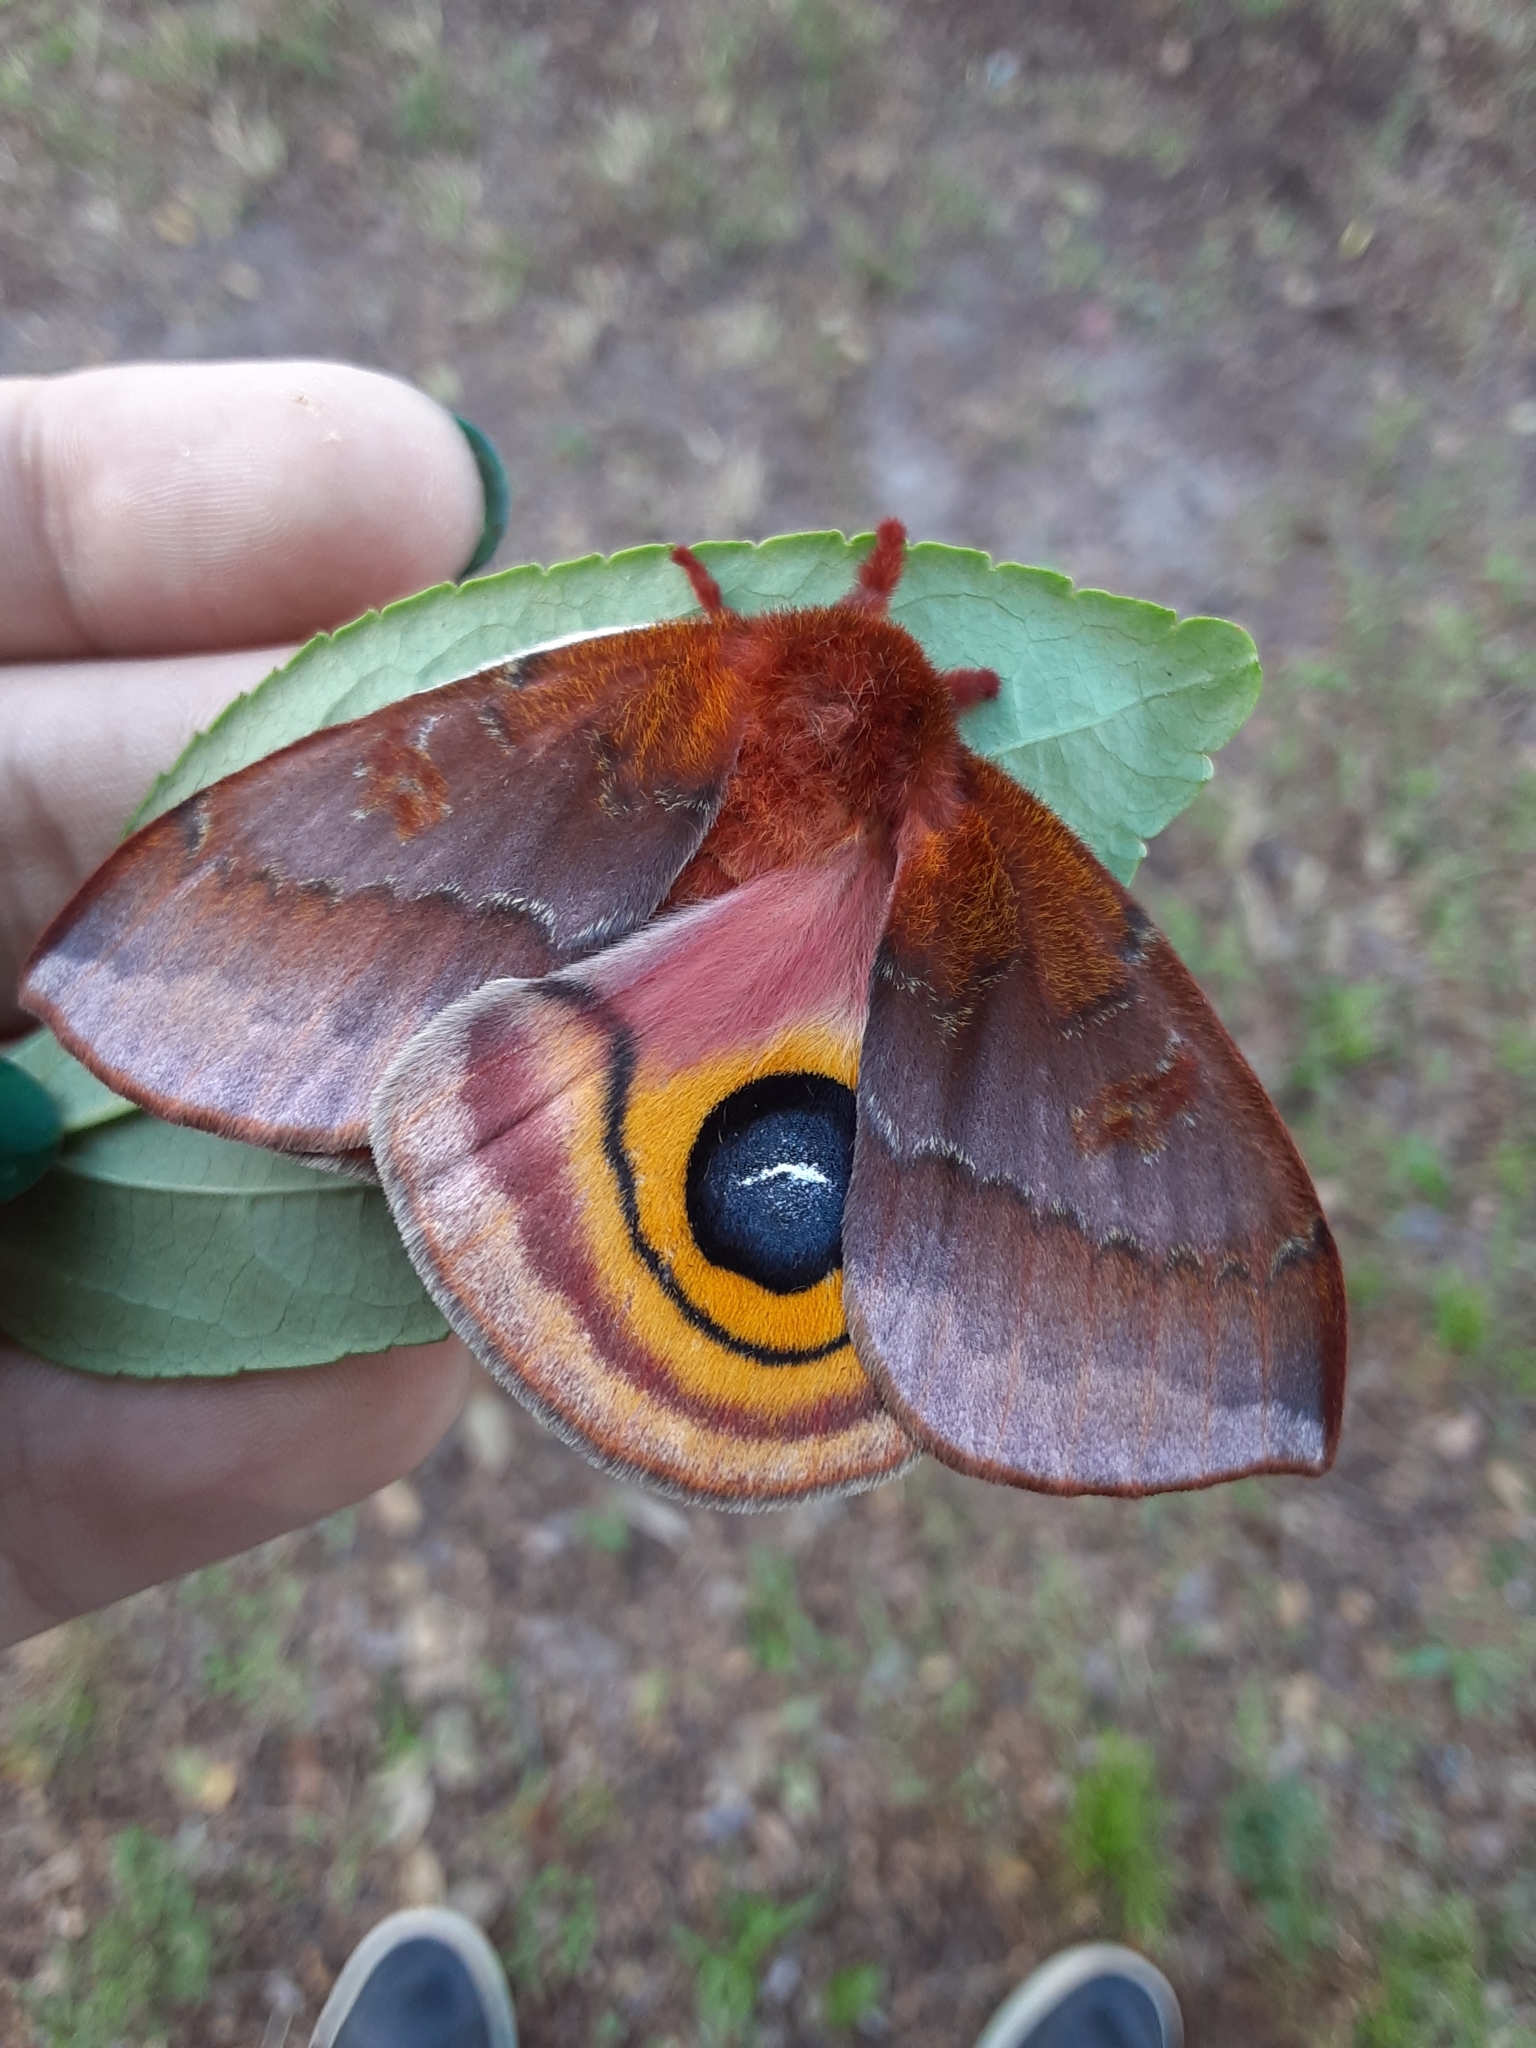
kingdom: Animalia
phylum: Arthropoda
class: Insecta
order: Lepidoptera
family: Saturniidae
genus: Automeris
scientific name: Automeris io
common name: Io moth
